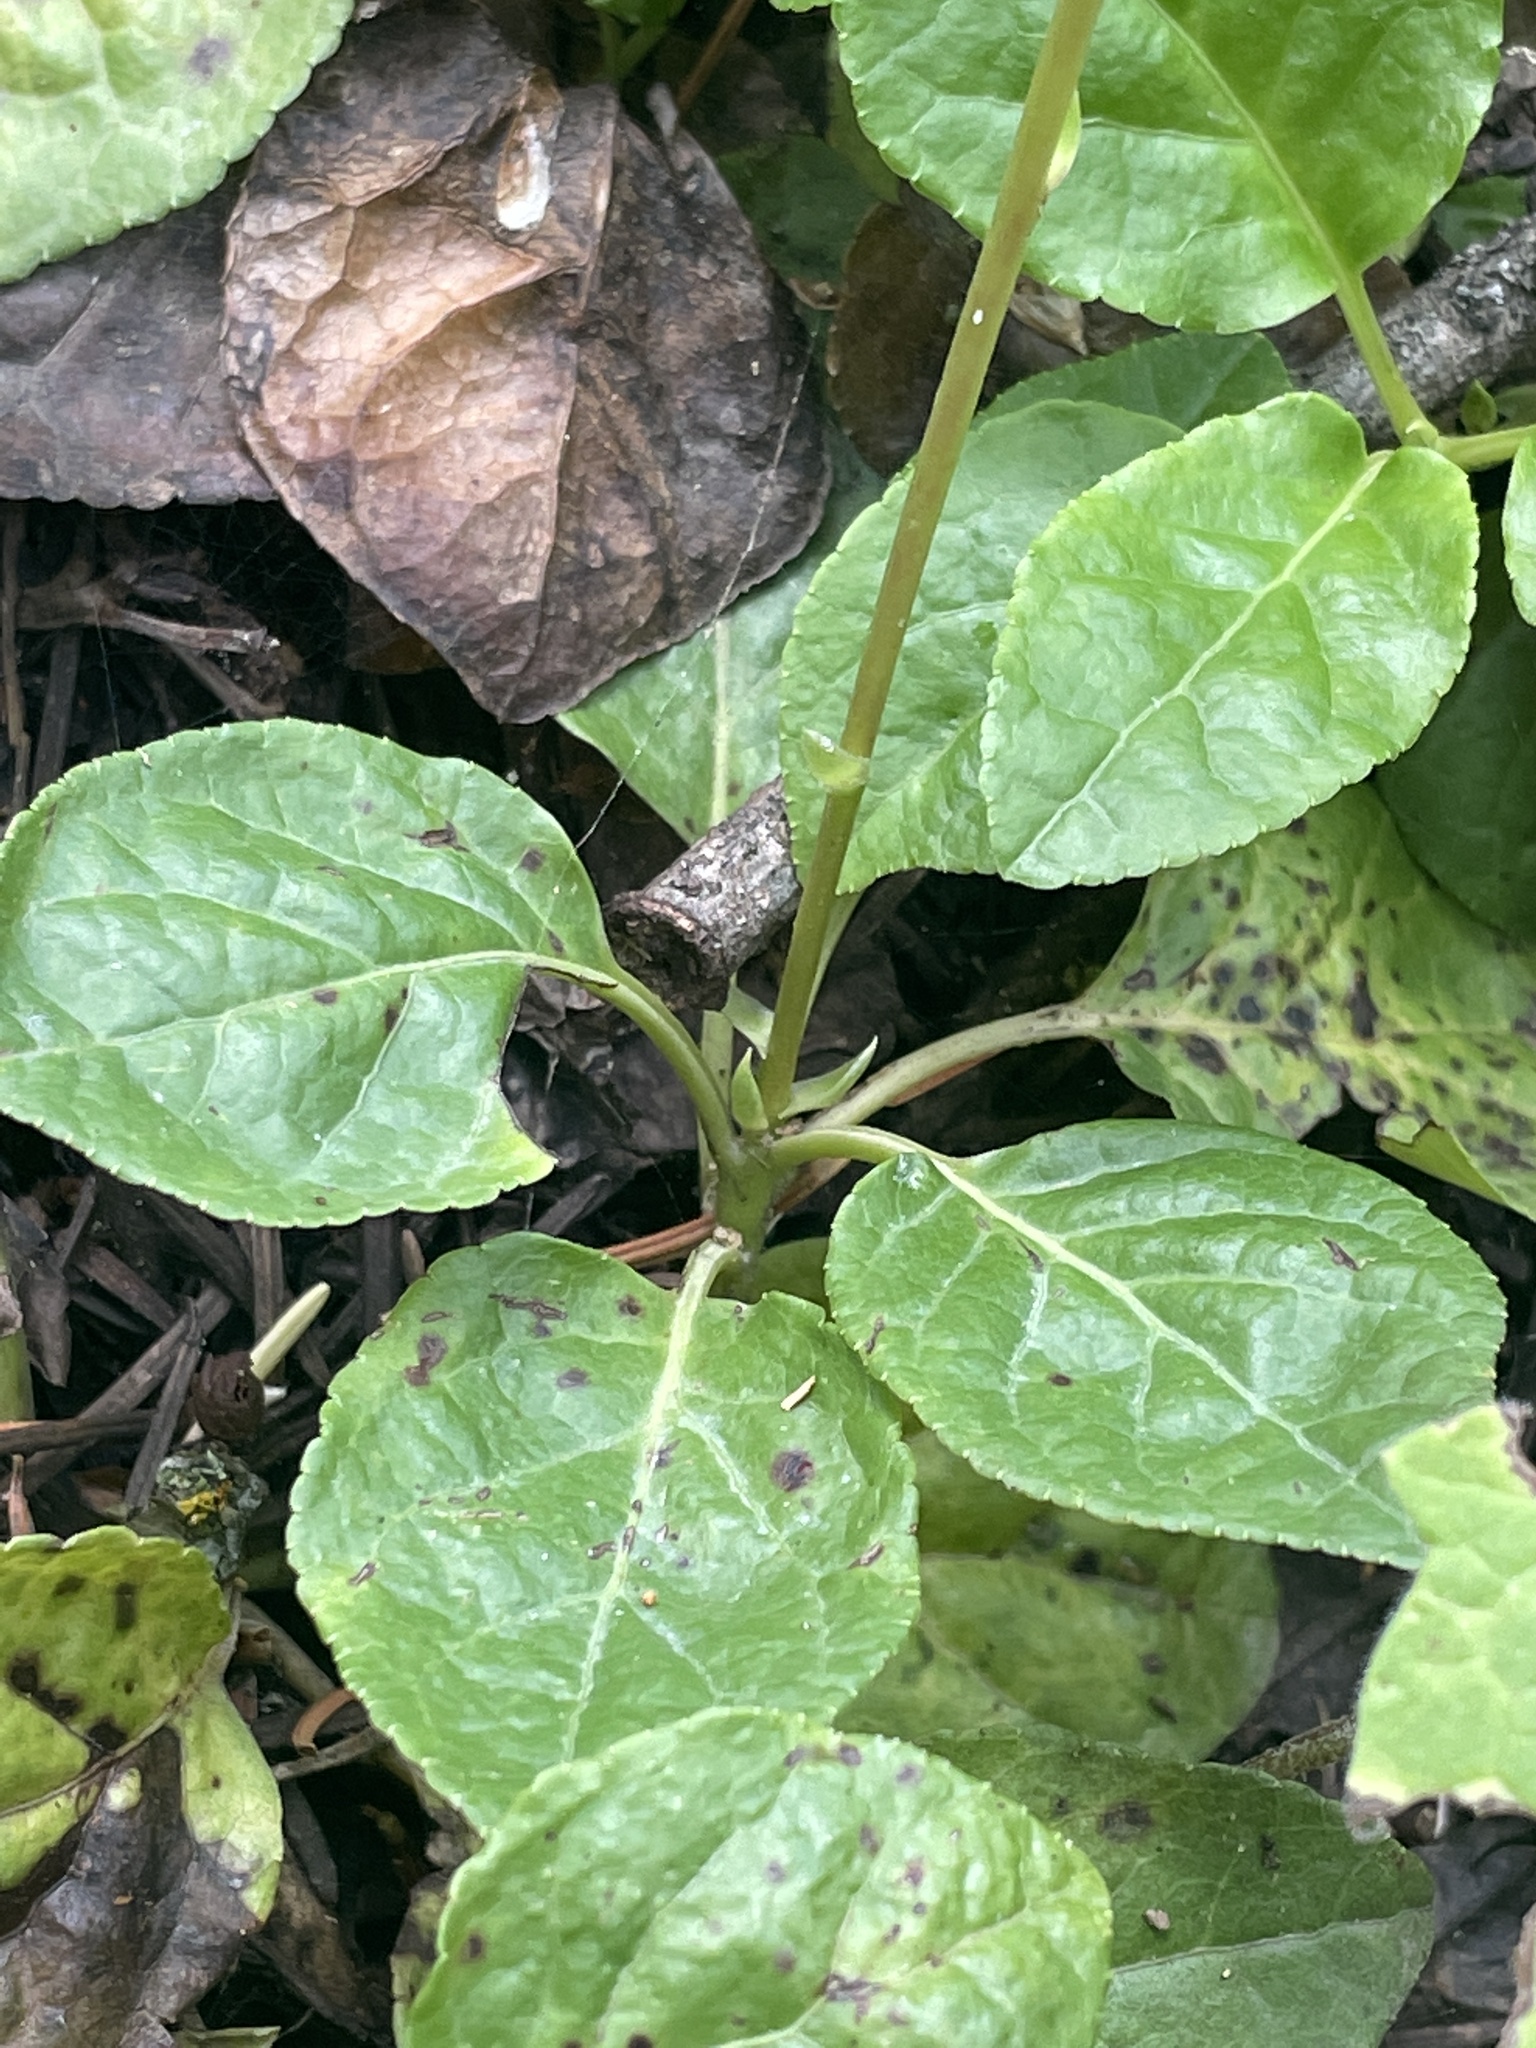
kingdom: Plantae
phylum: Tracheophyta
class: Magnoliopsida
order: Ericales
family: Ericaceae
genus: Orthilia
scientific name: Orthilia secunda
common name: One-sided orthilia
